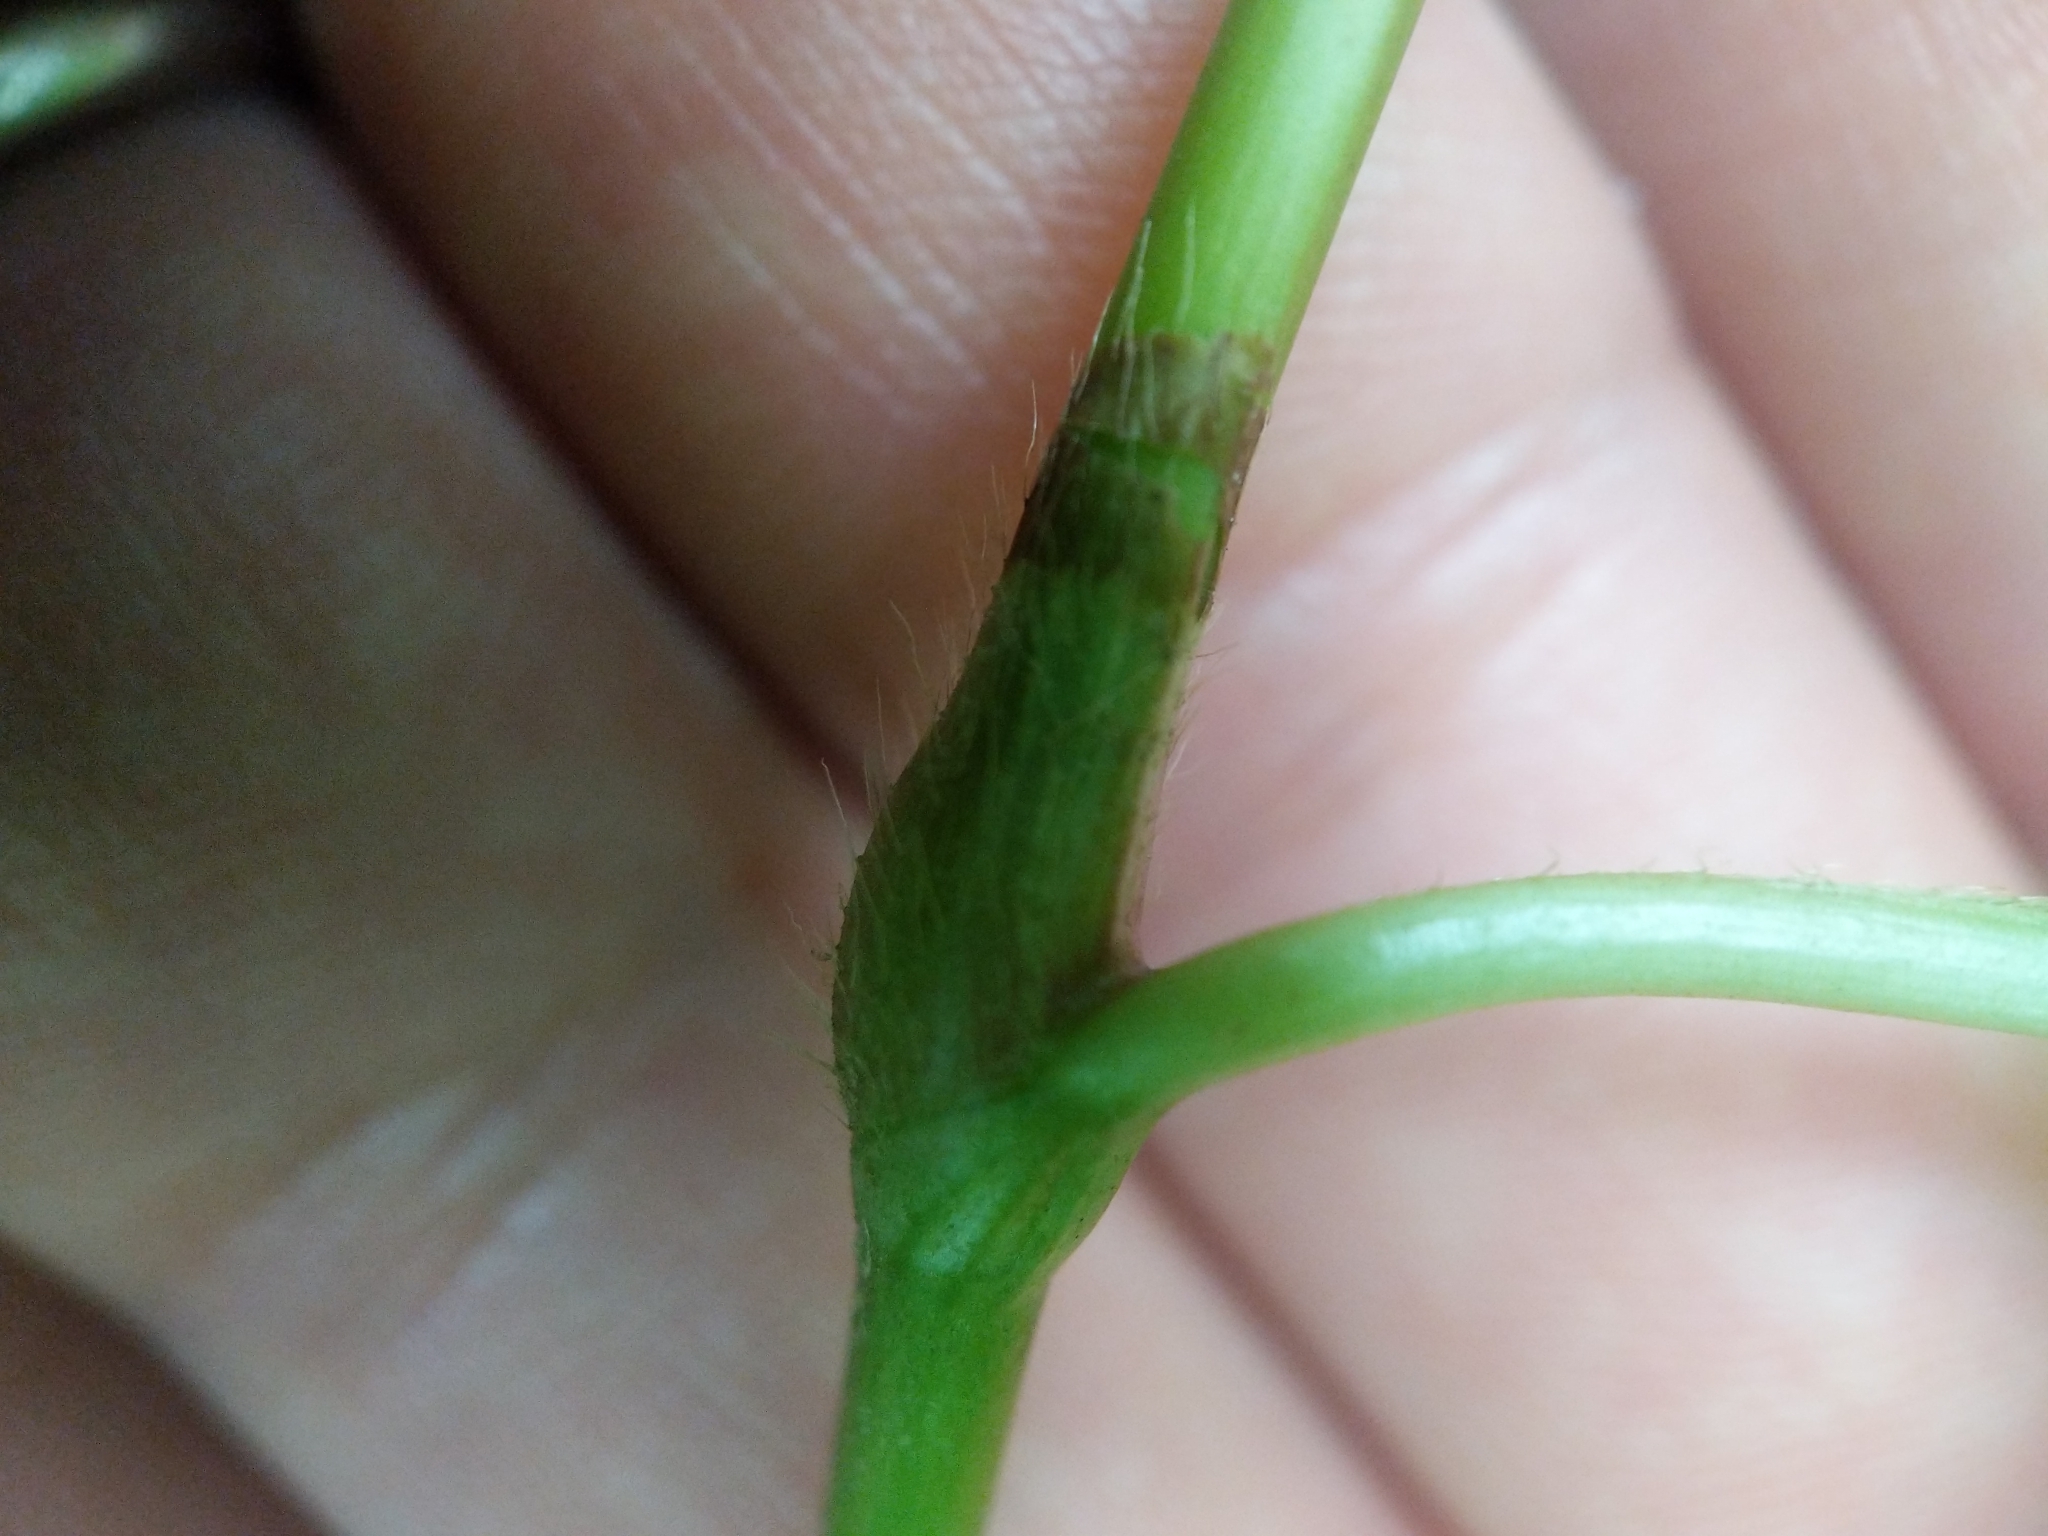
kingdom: Plantae
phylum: Tracheophyta
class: Magnoliopsida
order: Caryophyllales
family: Polygonaceae
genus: Persicaria
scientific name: Persicaria virginiana
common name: Jumpseed
